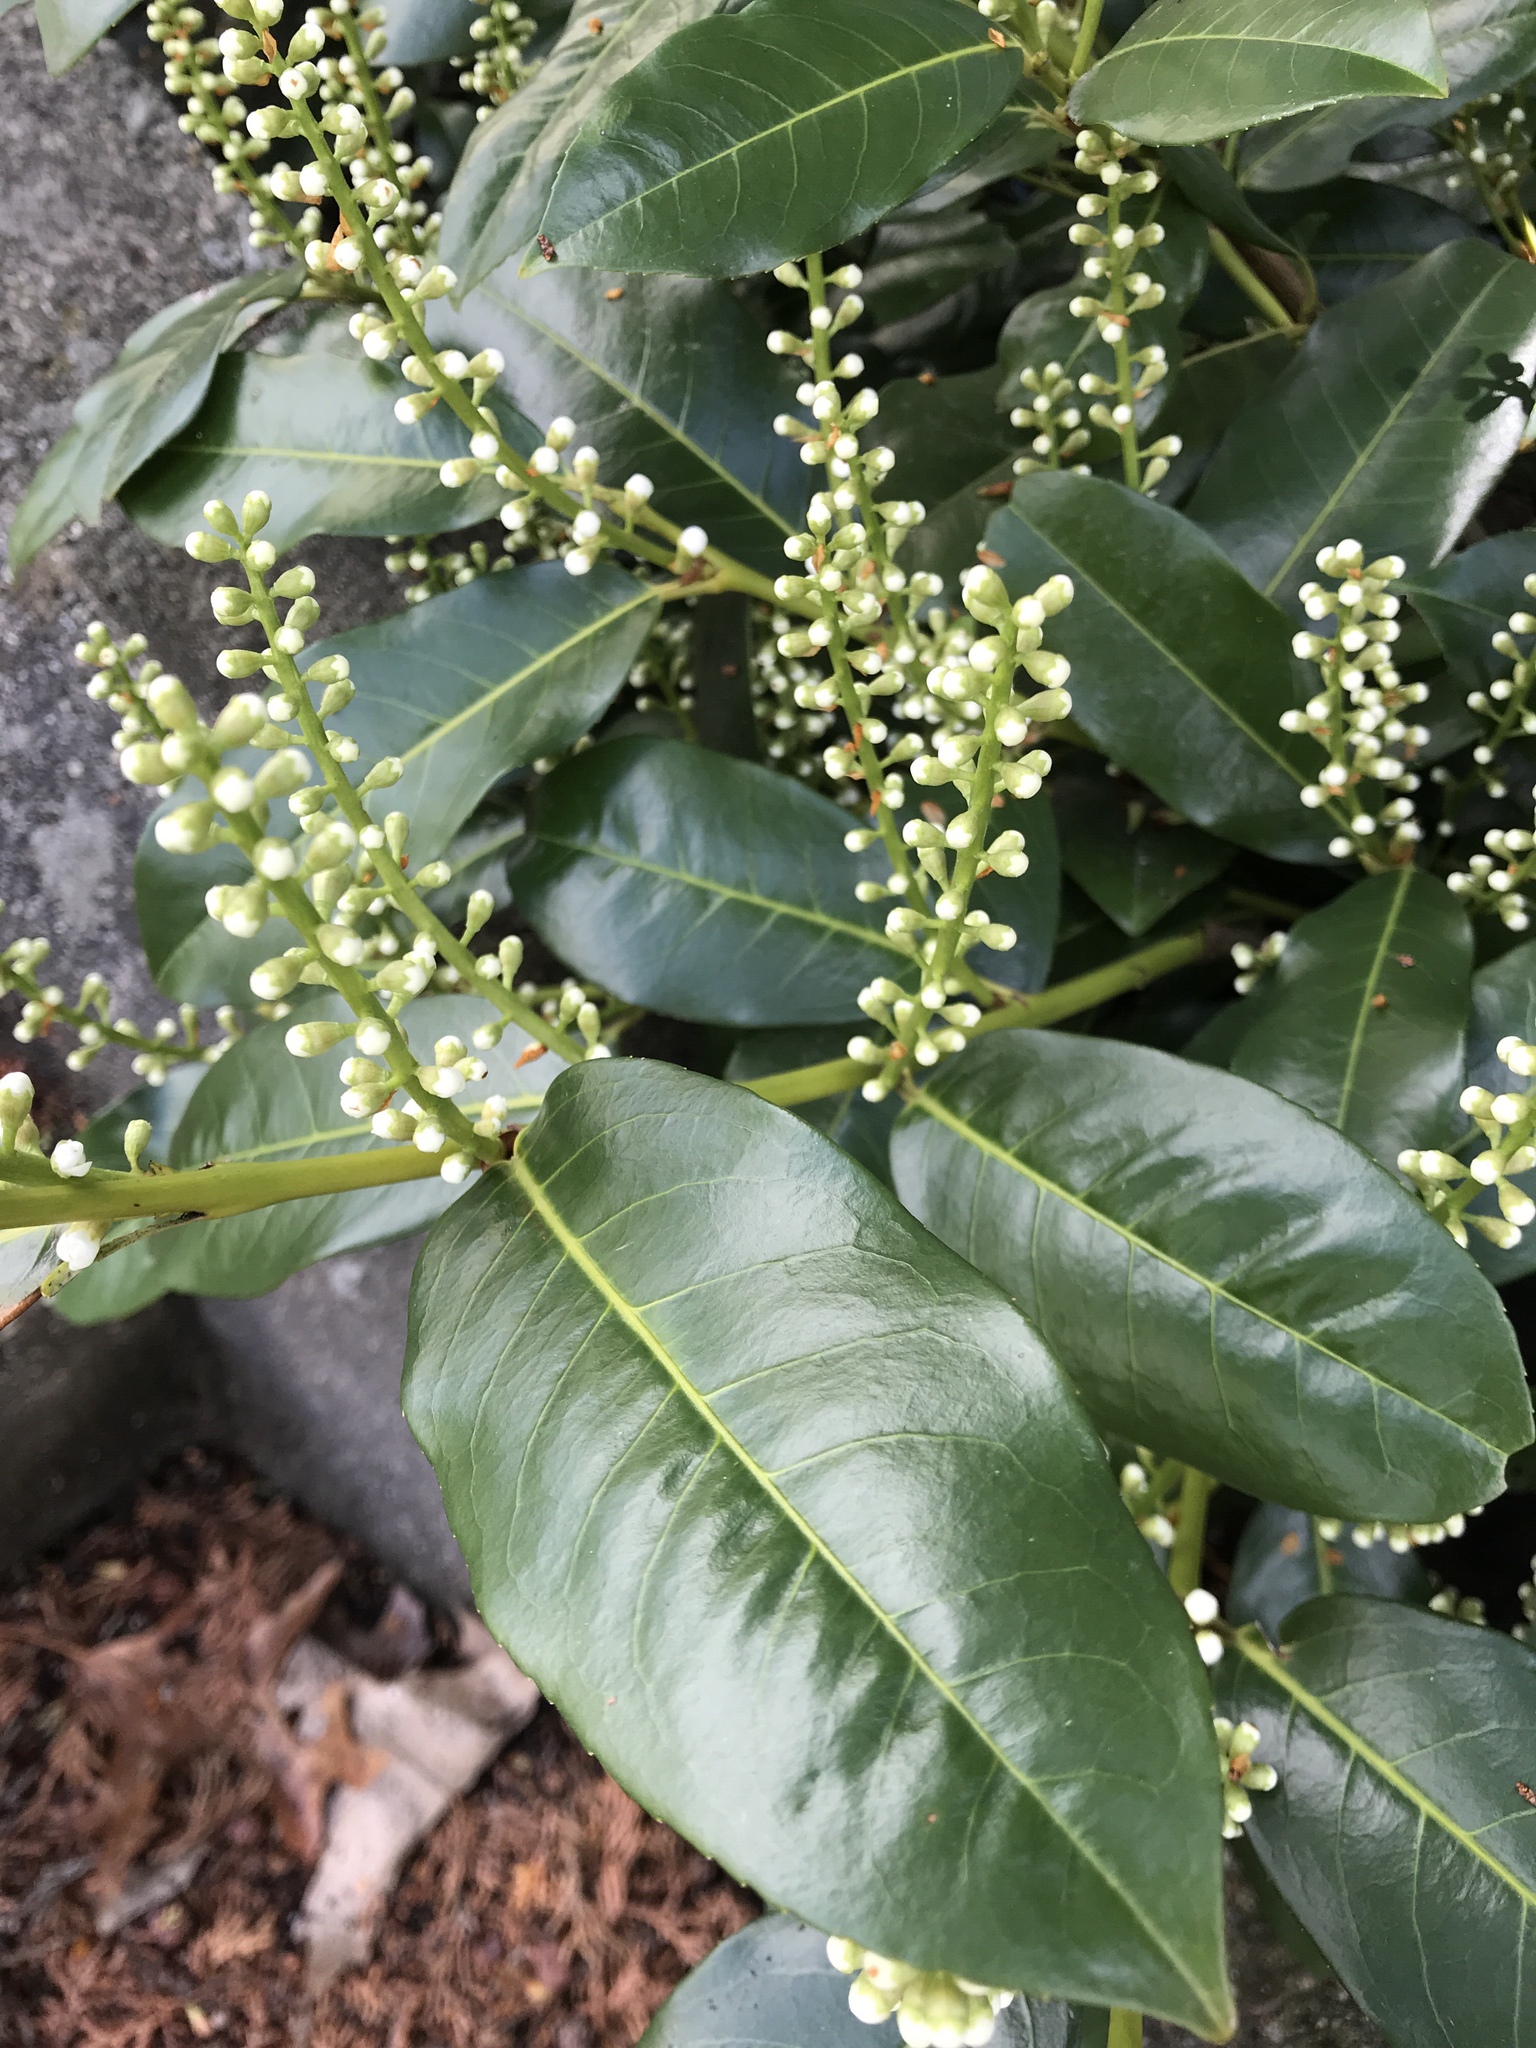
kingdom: Plantae
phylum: Tracheophyta
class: Magnoliopsida
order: Rosales
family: Rosaceae
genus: Prunus
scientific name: Prunus laurocerasus
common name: Cherry laurel
